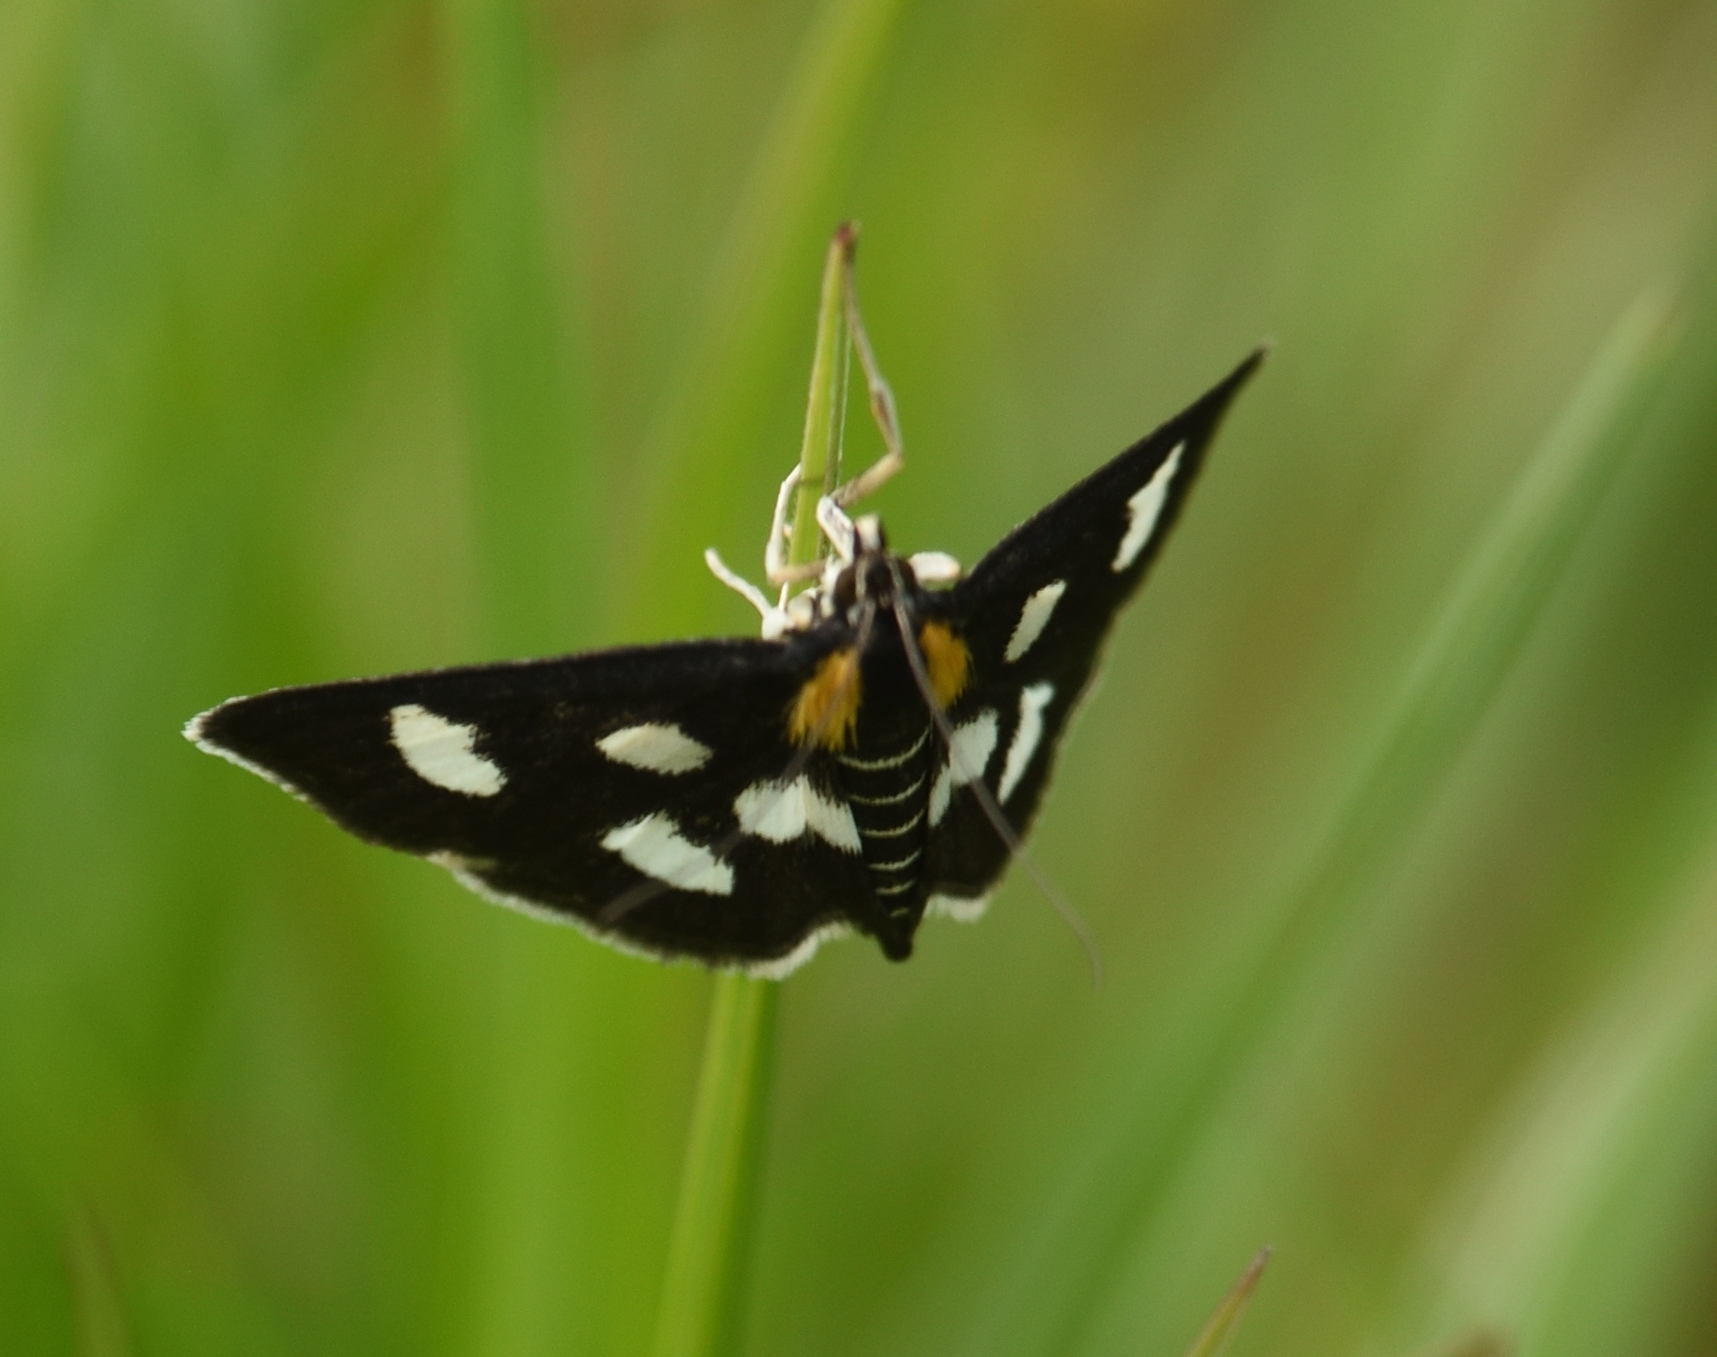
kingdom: Animalia
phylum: Arthropoda
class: Insecta
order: Lepidoptera
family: Crambidae
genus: Anania
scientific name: Anania funebris
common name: White-spotted sable moth
